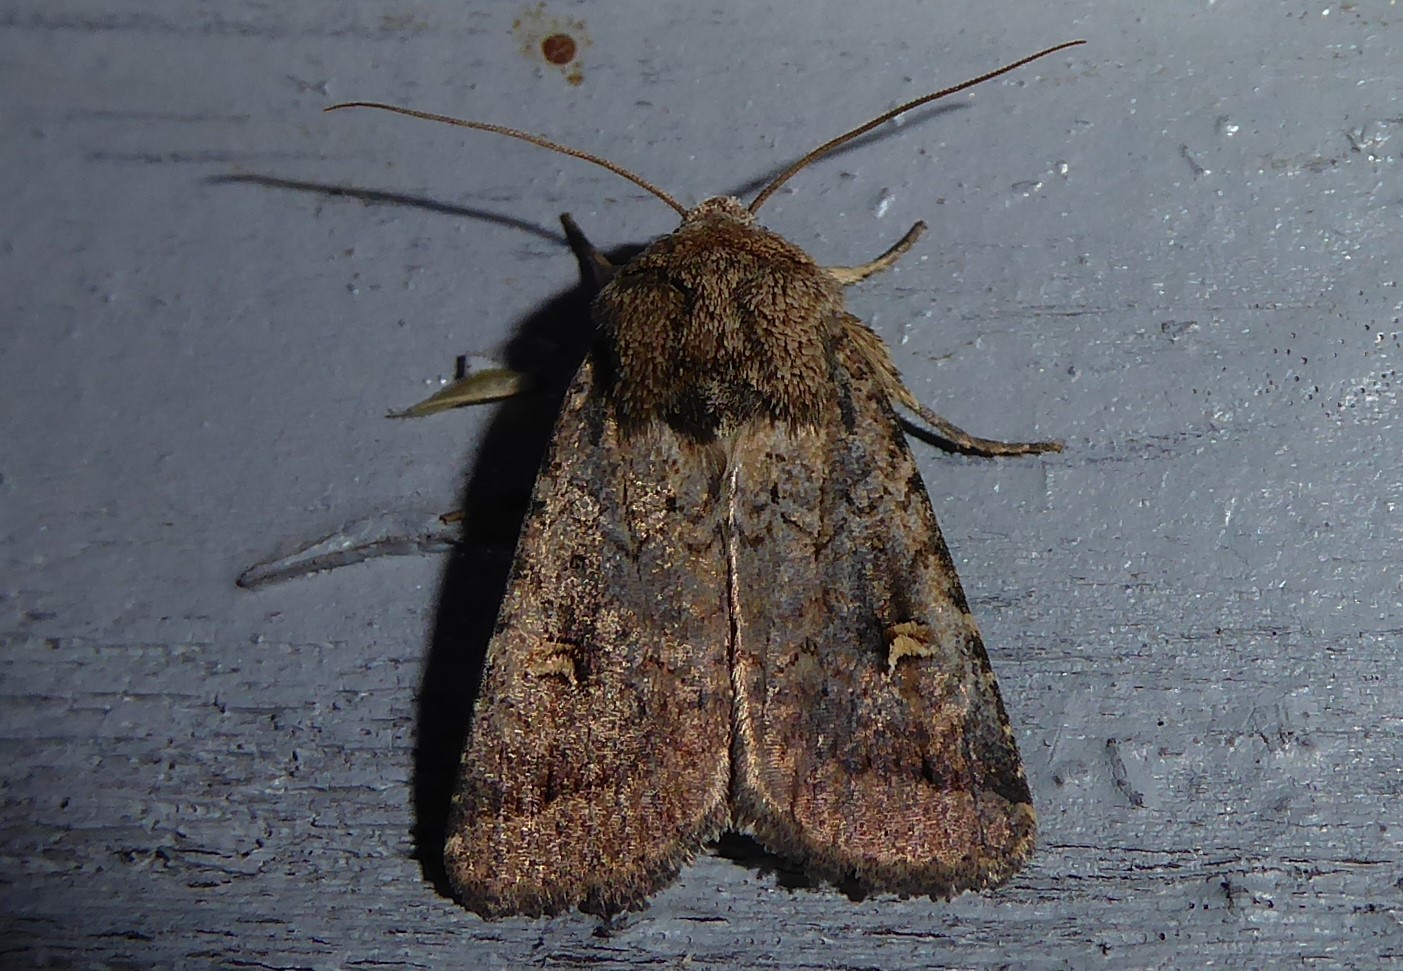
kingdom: Animalia
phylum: Arthropoda
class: Insecta
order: Lepidoptera
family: Noctuidae
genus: Proteuxoa
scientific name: Proteuxoa tetronycha
